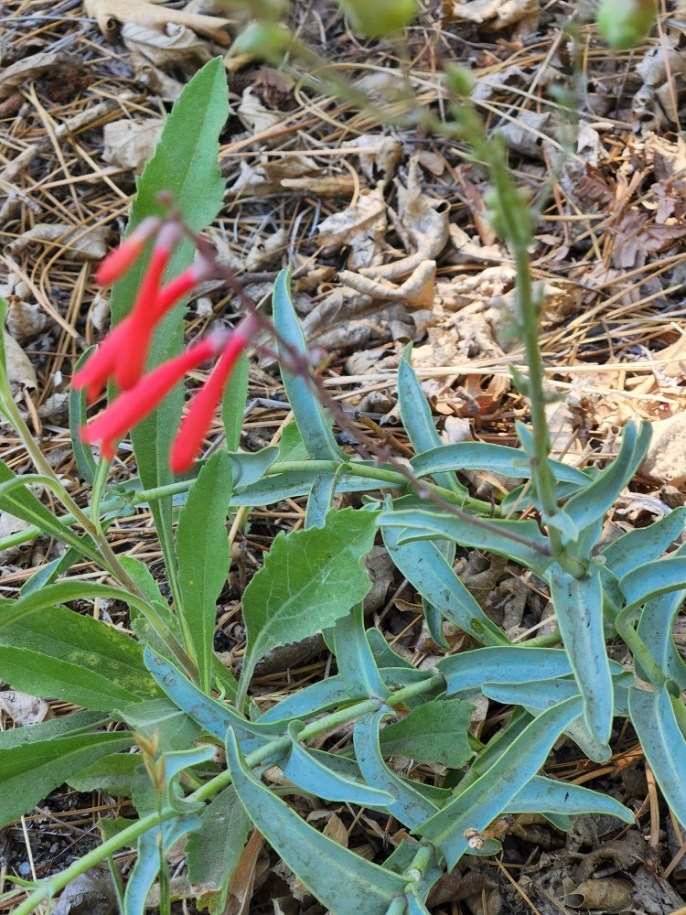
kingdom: Plantae
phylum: Tracheophyta
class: Magnoliopsida
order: Lamiales
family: Plantaginaceae
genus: Penstemon
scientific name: Penstemon centranthifolius
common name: Scarlet bugler
